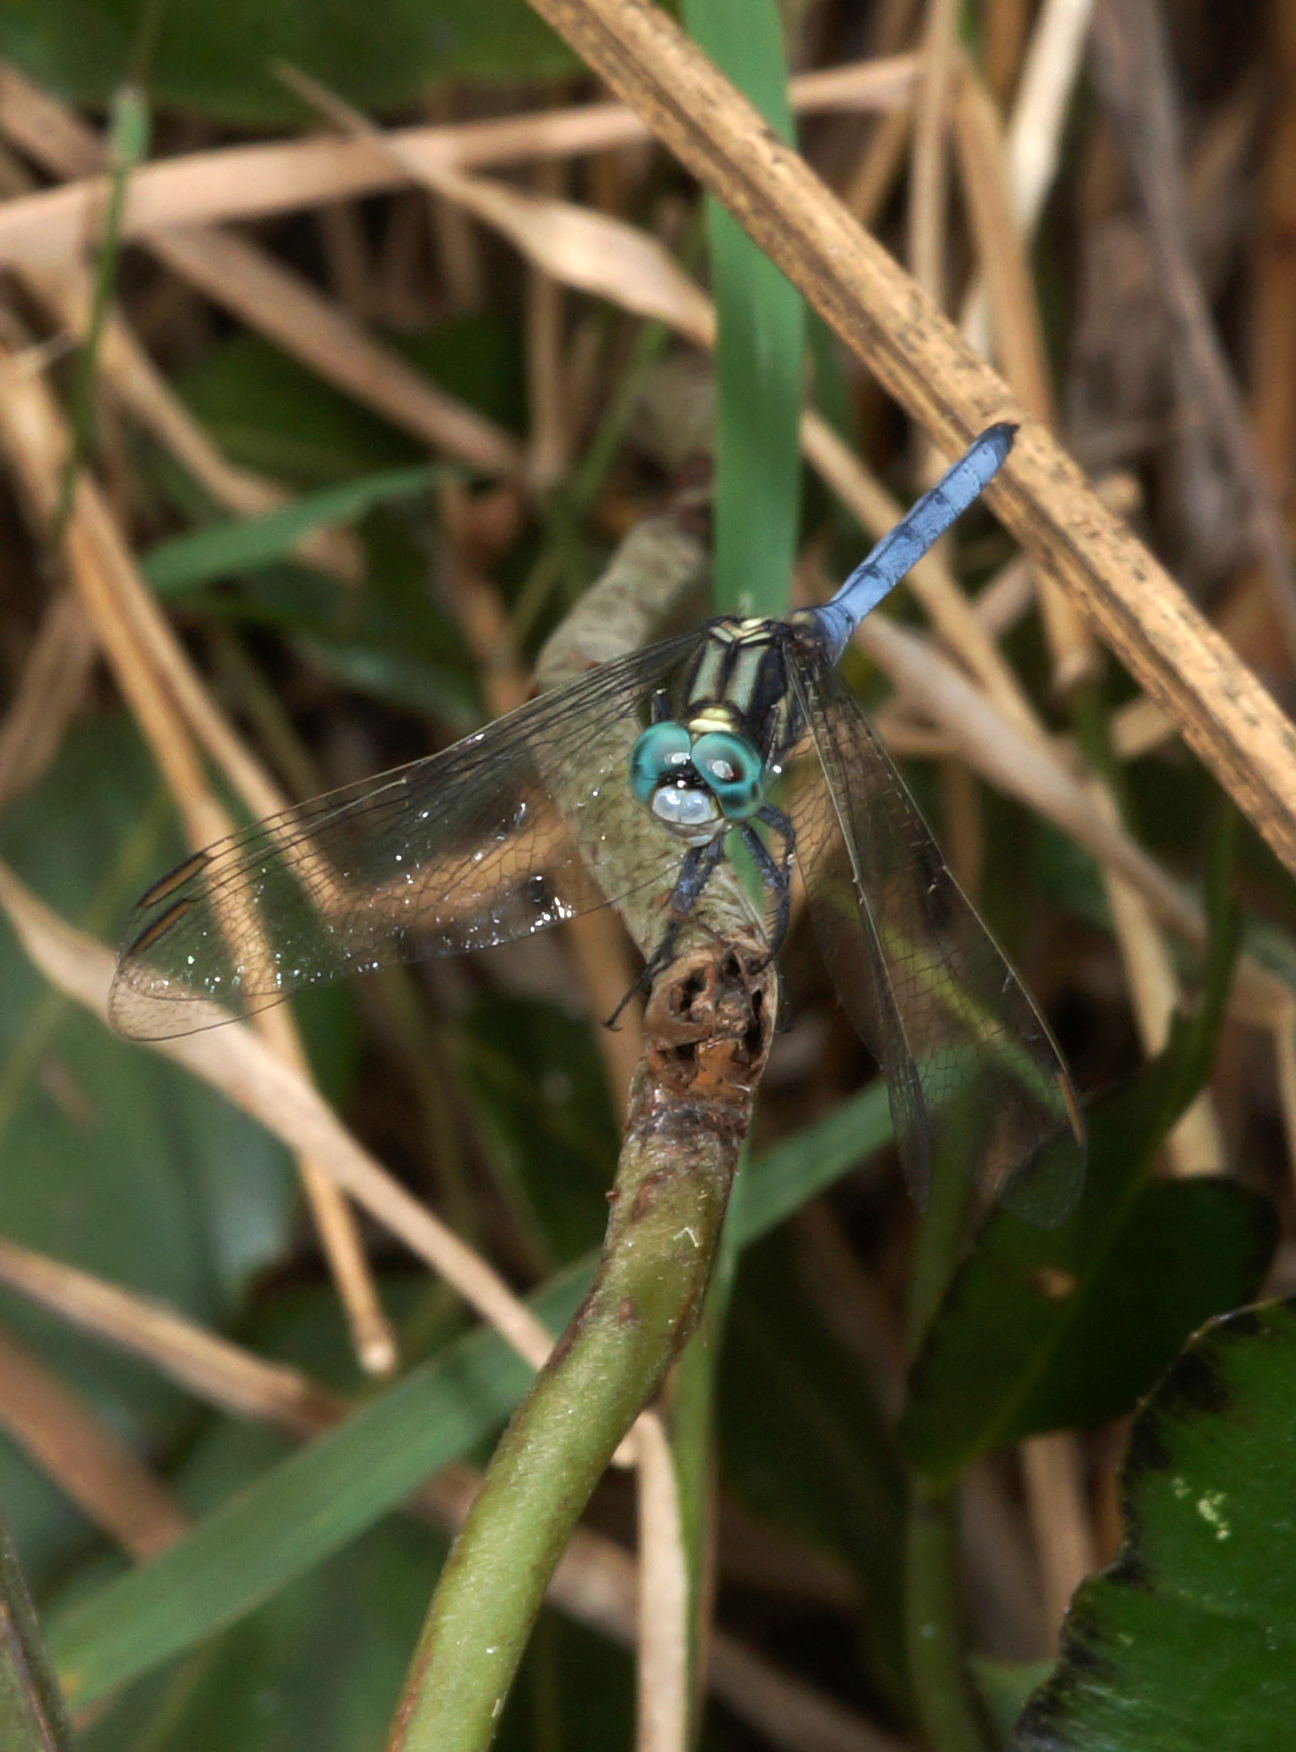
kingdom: Animalia
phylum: Arthropoda
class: Insecta
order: Odonata
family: Libellulidae
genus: Orthetrum
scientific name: Orthetrum luzonicum
